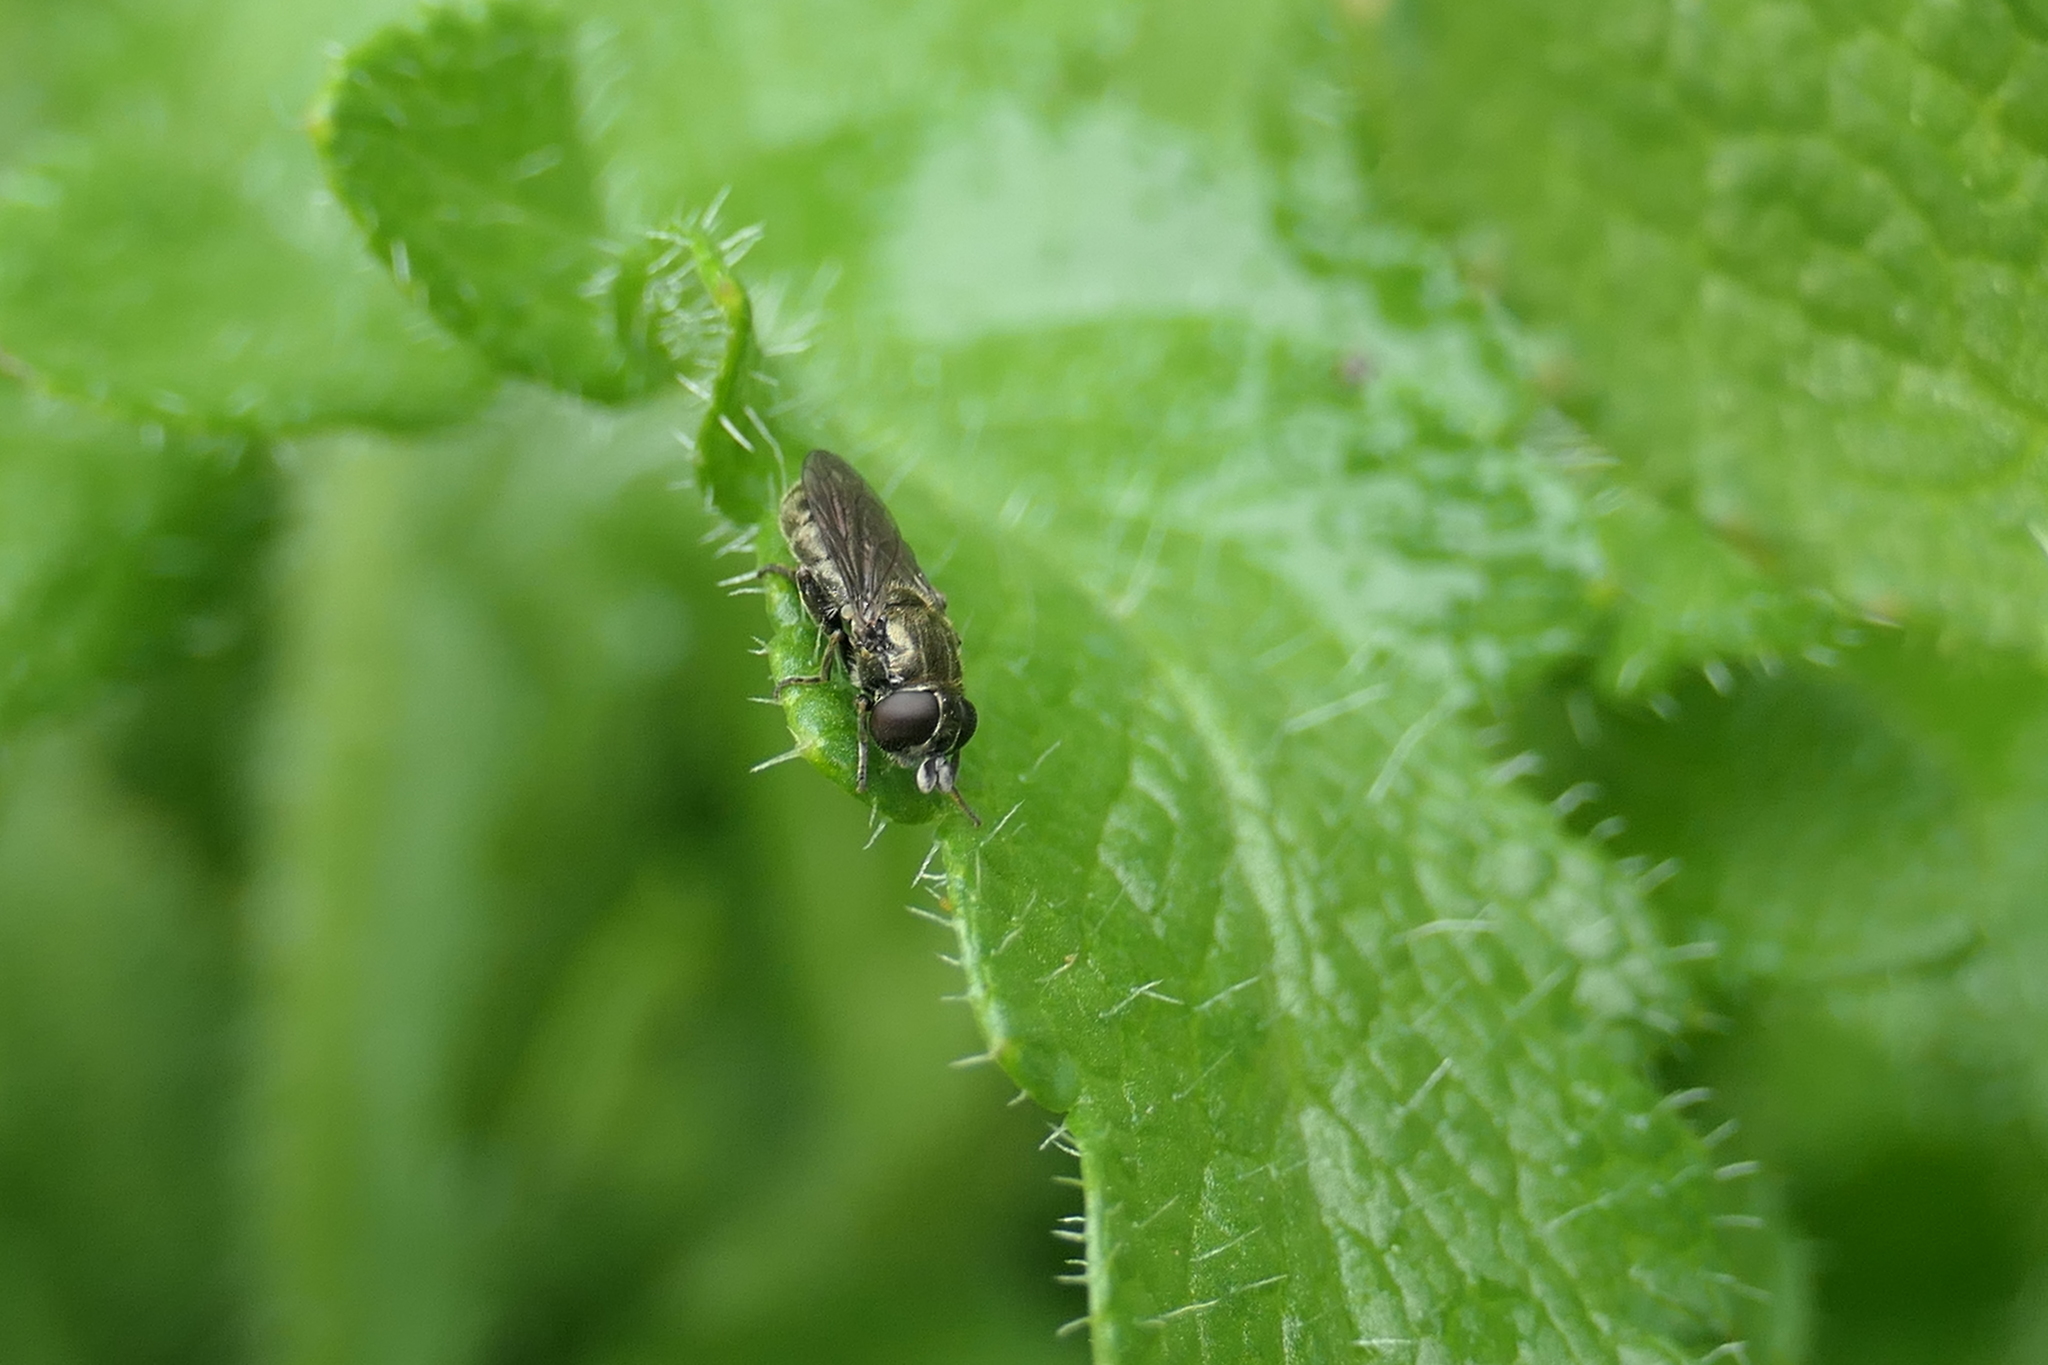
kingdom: Animalia
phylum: Arthropoda
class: Insecta
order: Diptera
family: Syrphidae
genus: Eumerus
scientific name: Eumerus
